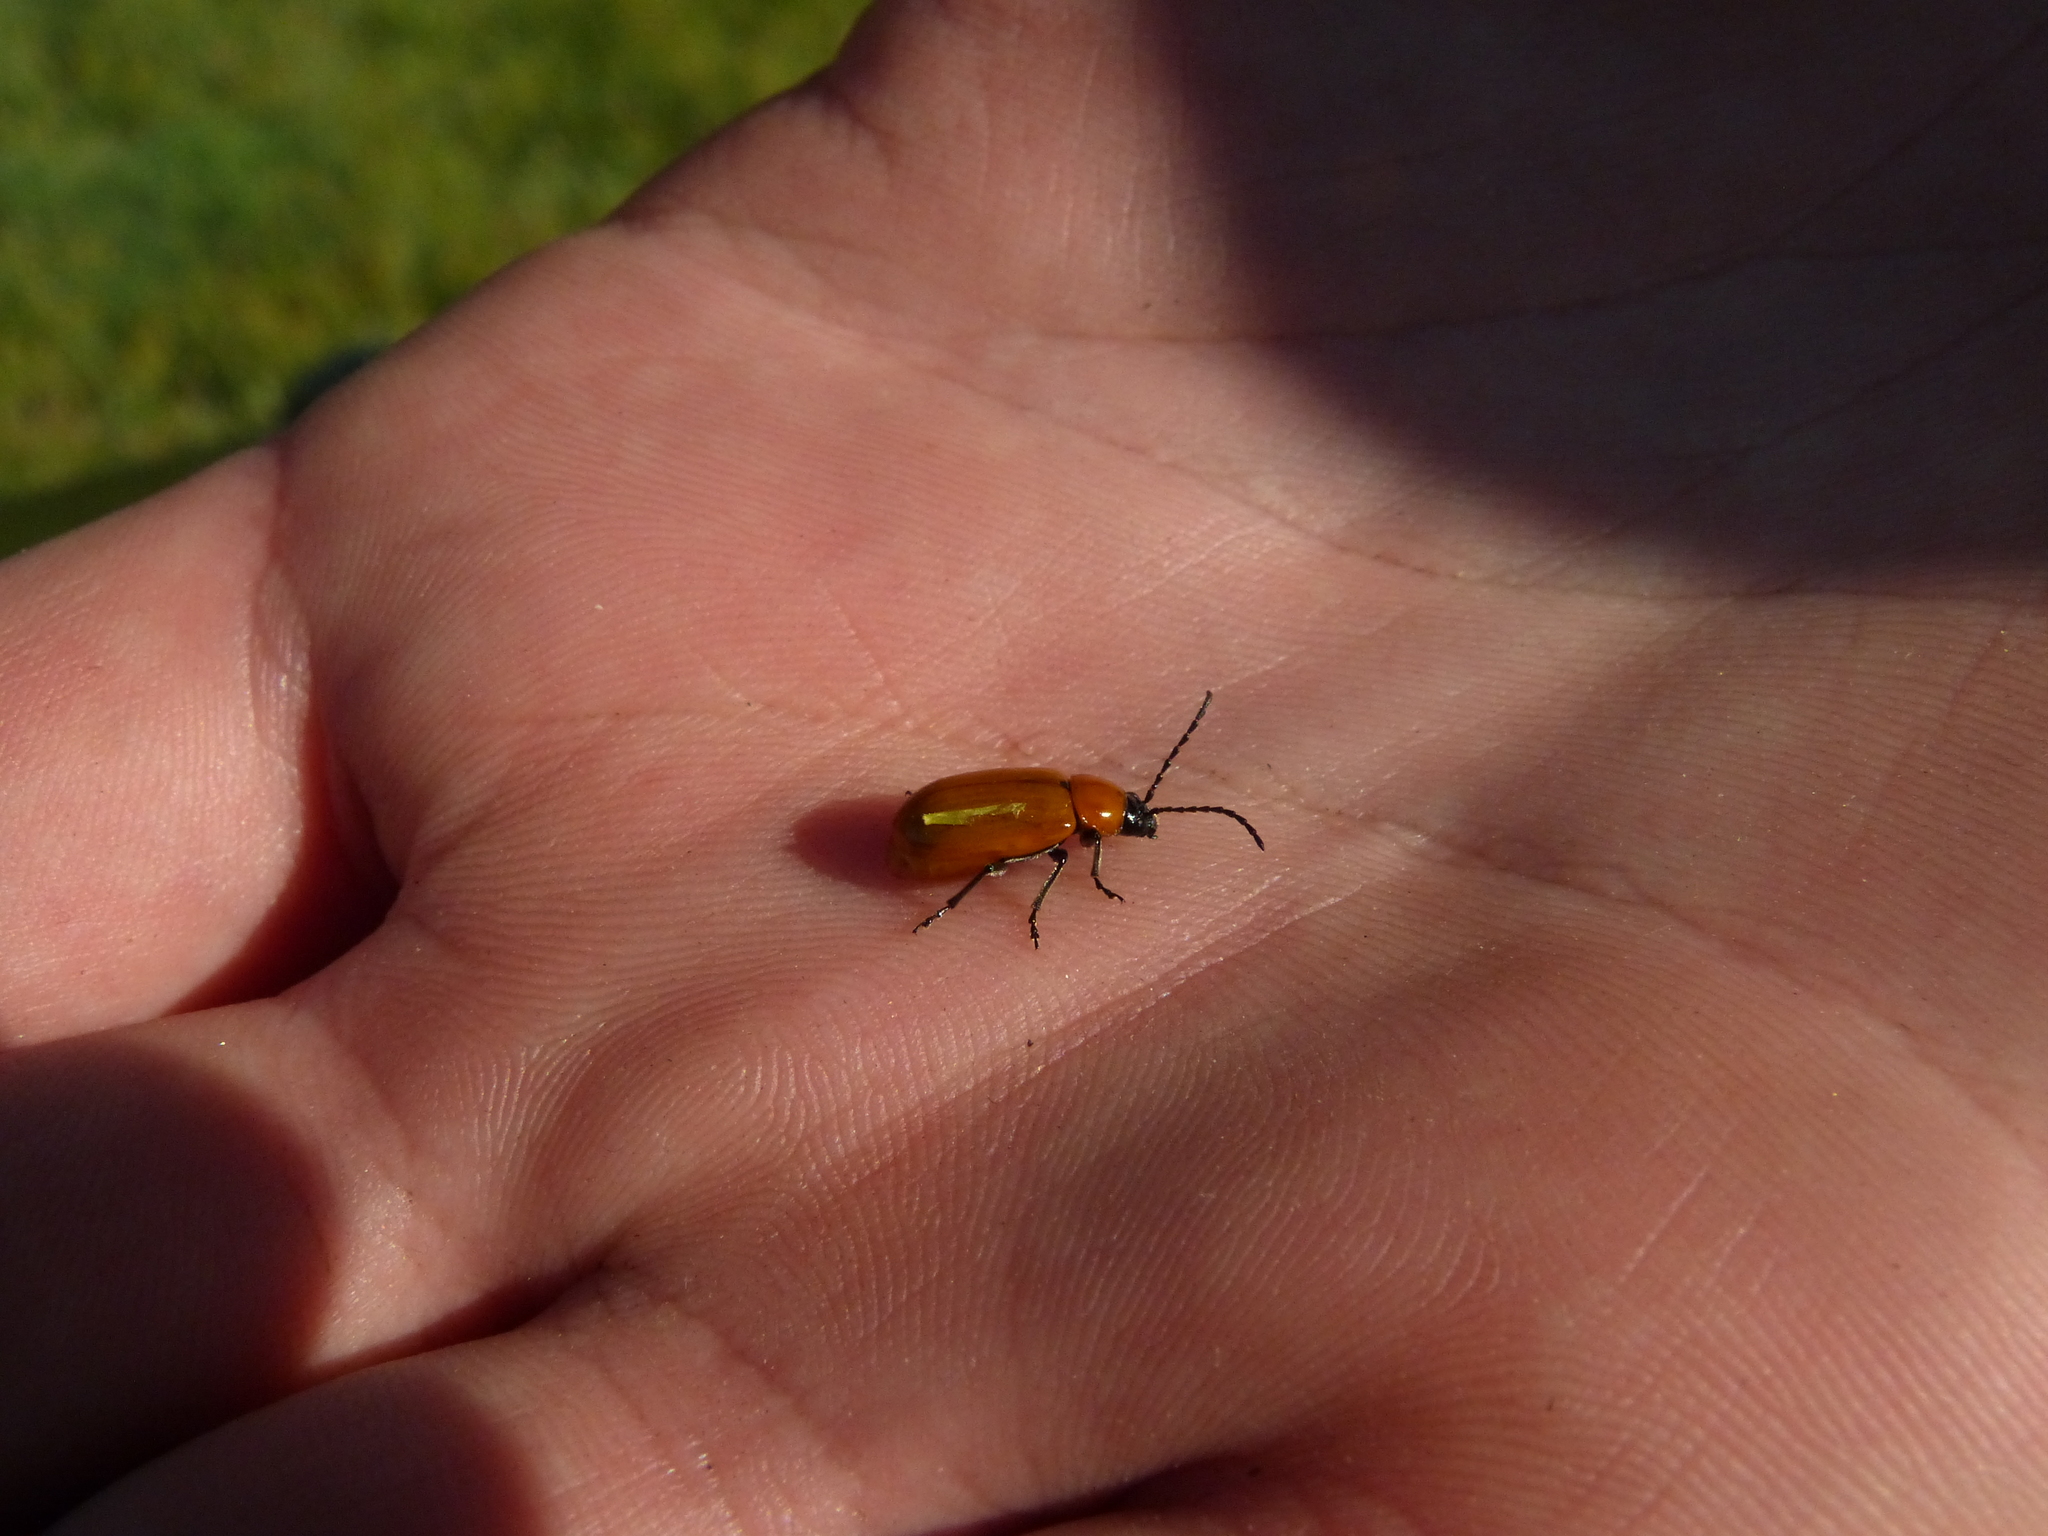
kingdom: Animalia
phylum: Arthropoda
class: Insecta
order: Coleoptera
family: Chrysomelidae
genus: Exosoma
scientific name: Exosoma lusitanicum
